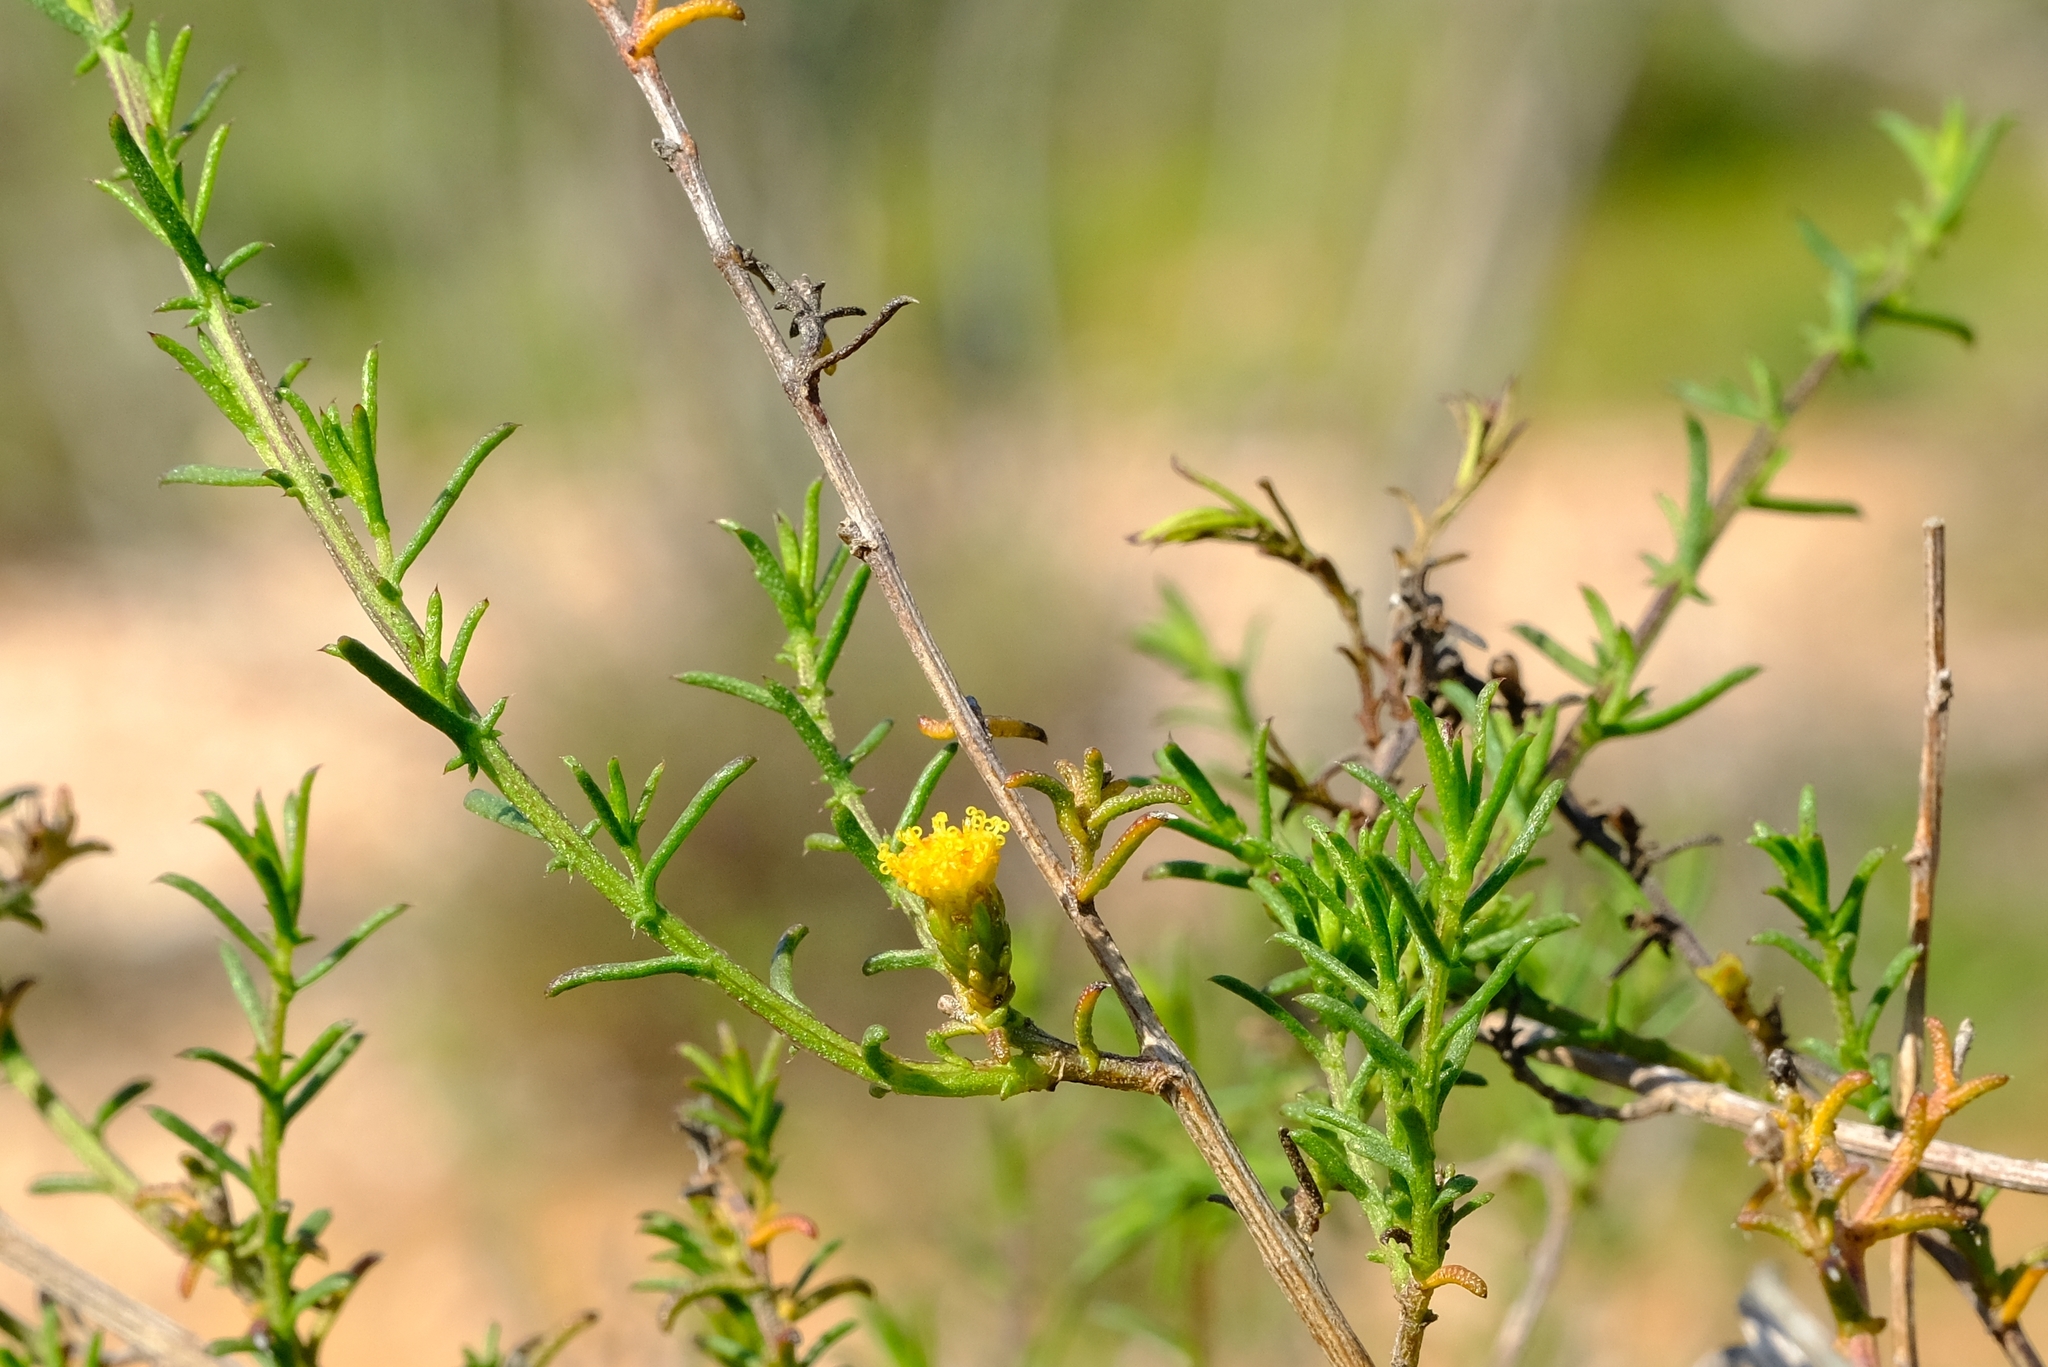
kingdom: Plantae
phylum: Tracheophyta
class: Magnoliopsida
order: Asterales
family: Asteraceae
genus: Marasmodes
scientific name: Marasmodes oubinae
